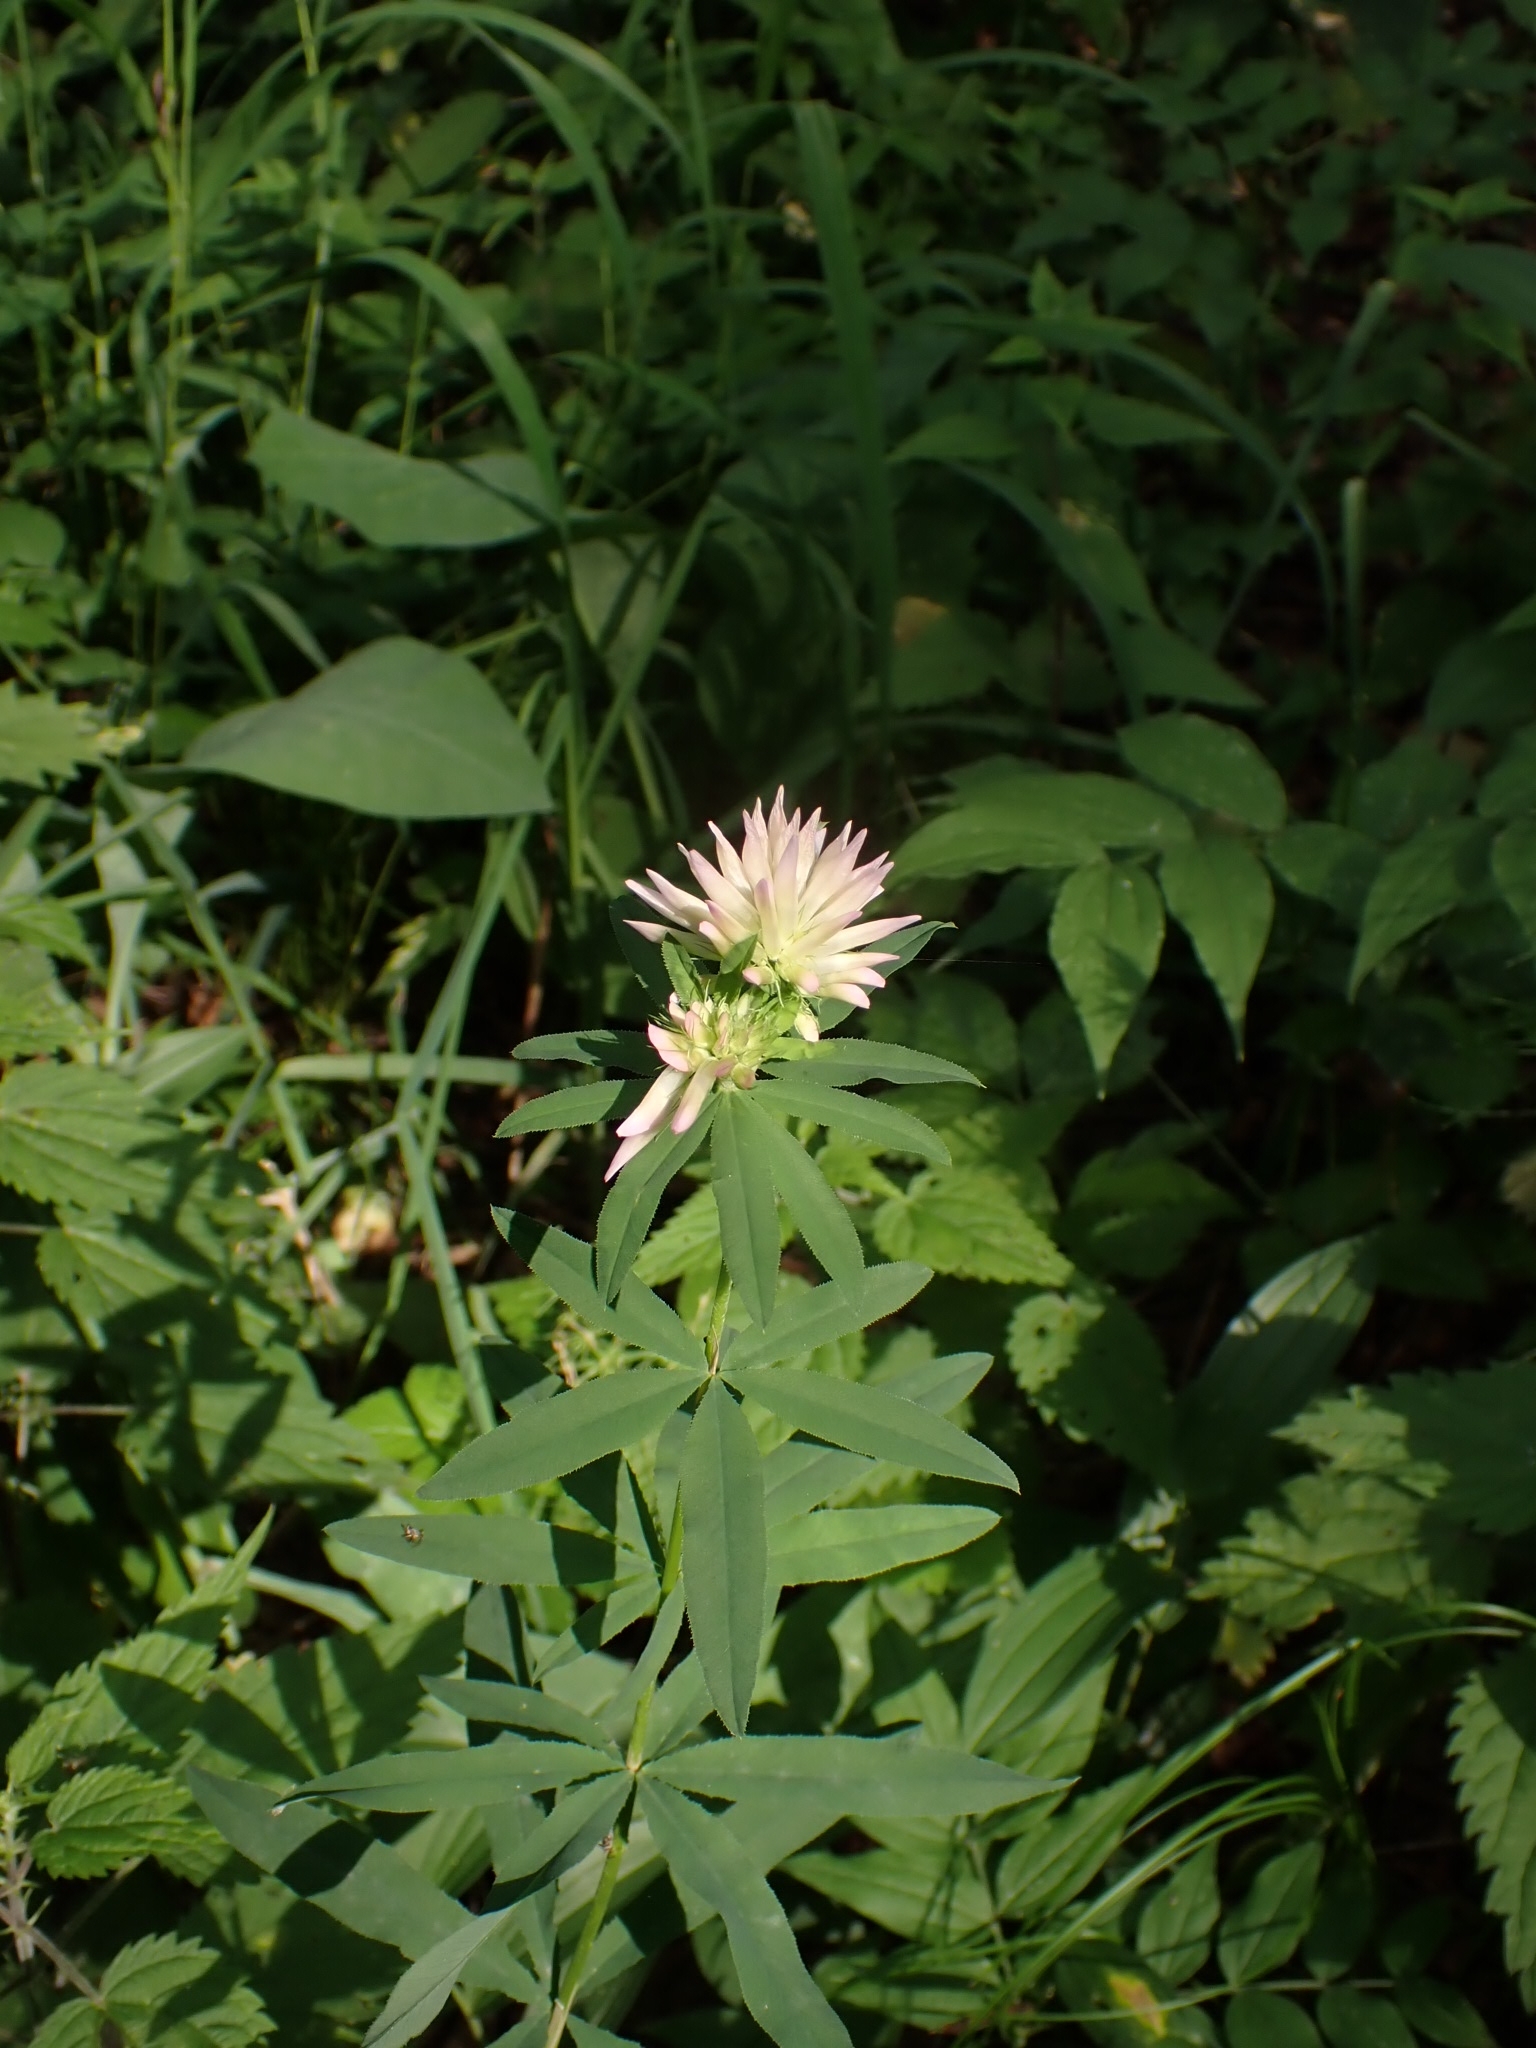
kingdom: Plantae
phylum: Tracheophyta
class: Magnoliopsida
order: Fabales
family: Fabaceae
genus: Trifolium
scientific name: Trifolium lupinaster
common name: Lupine clover
